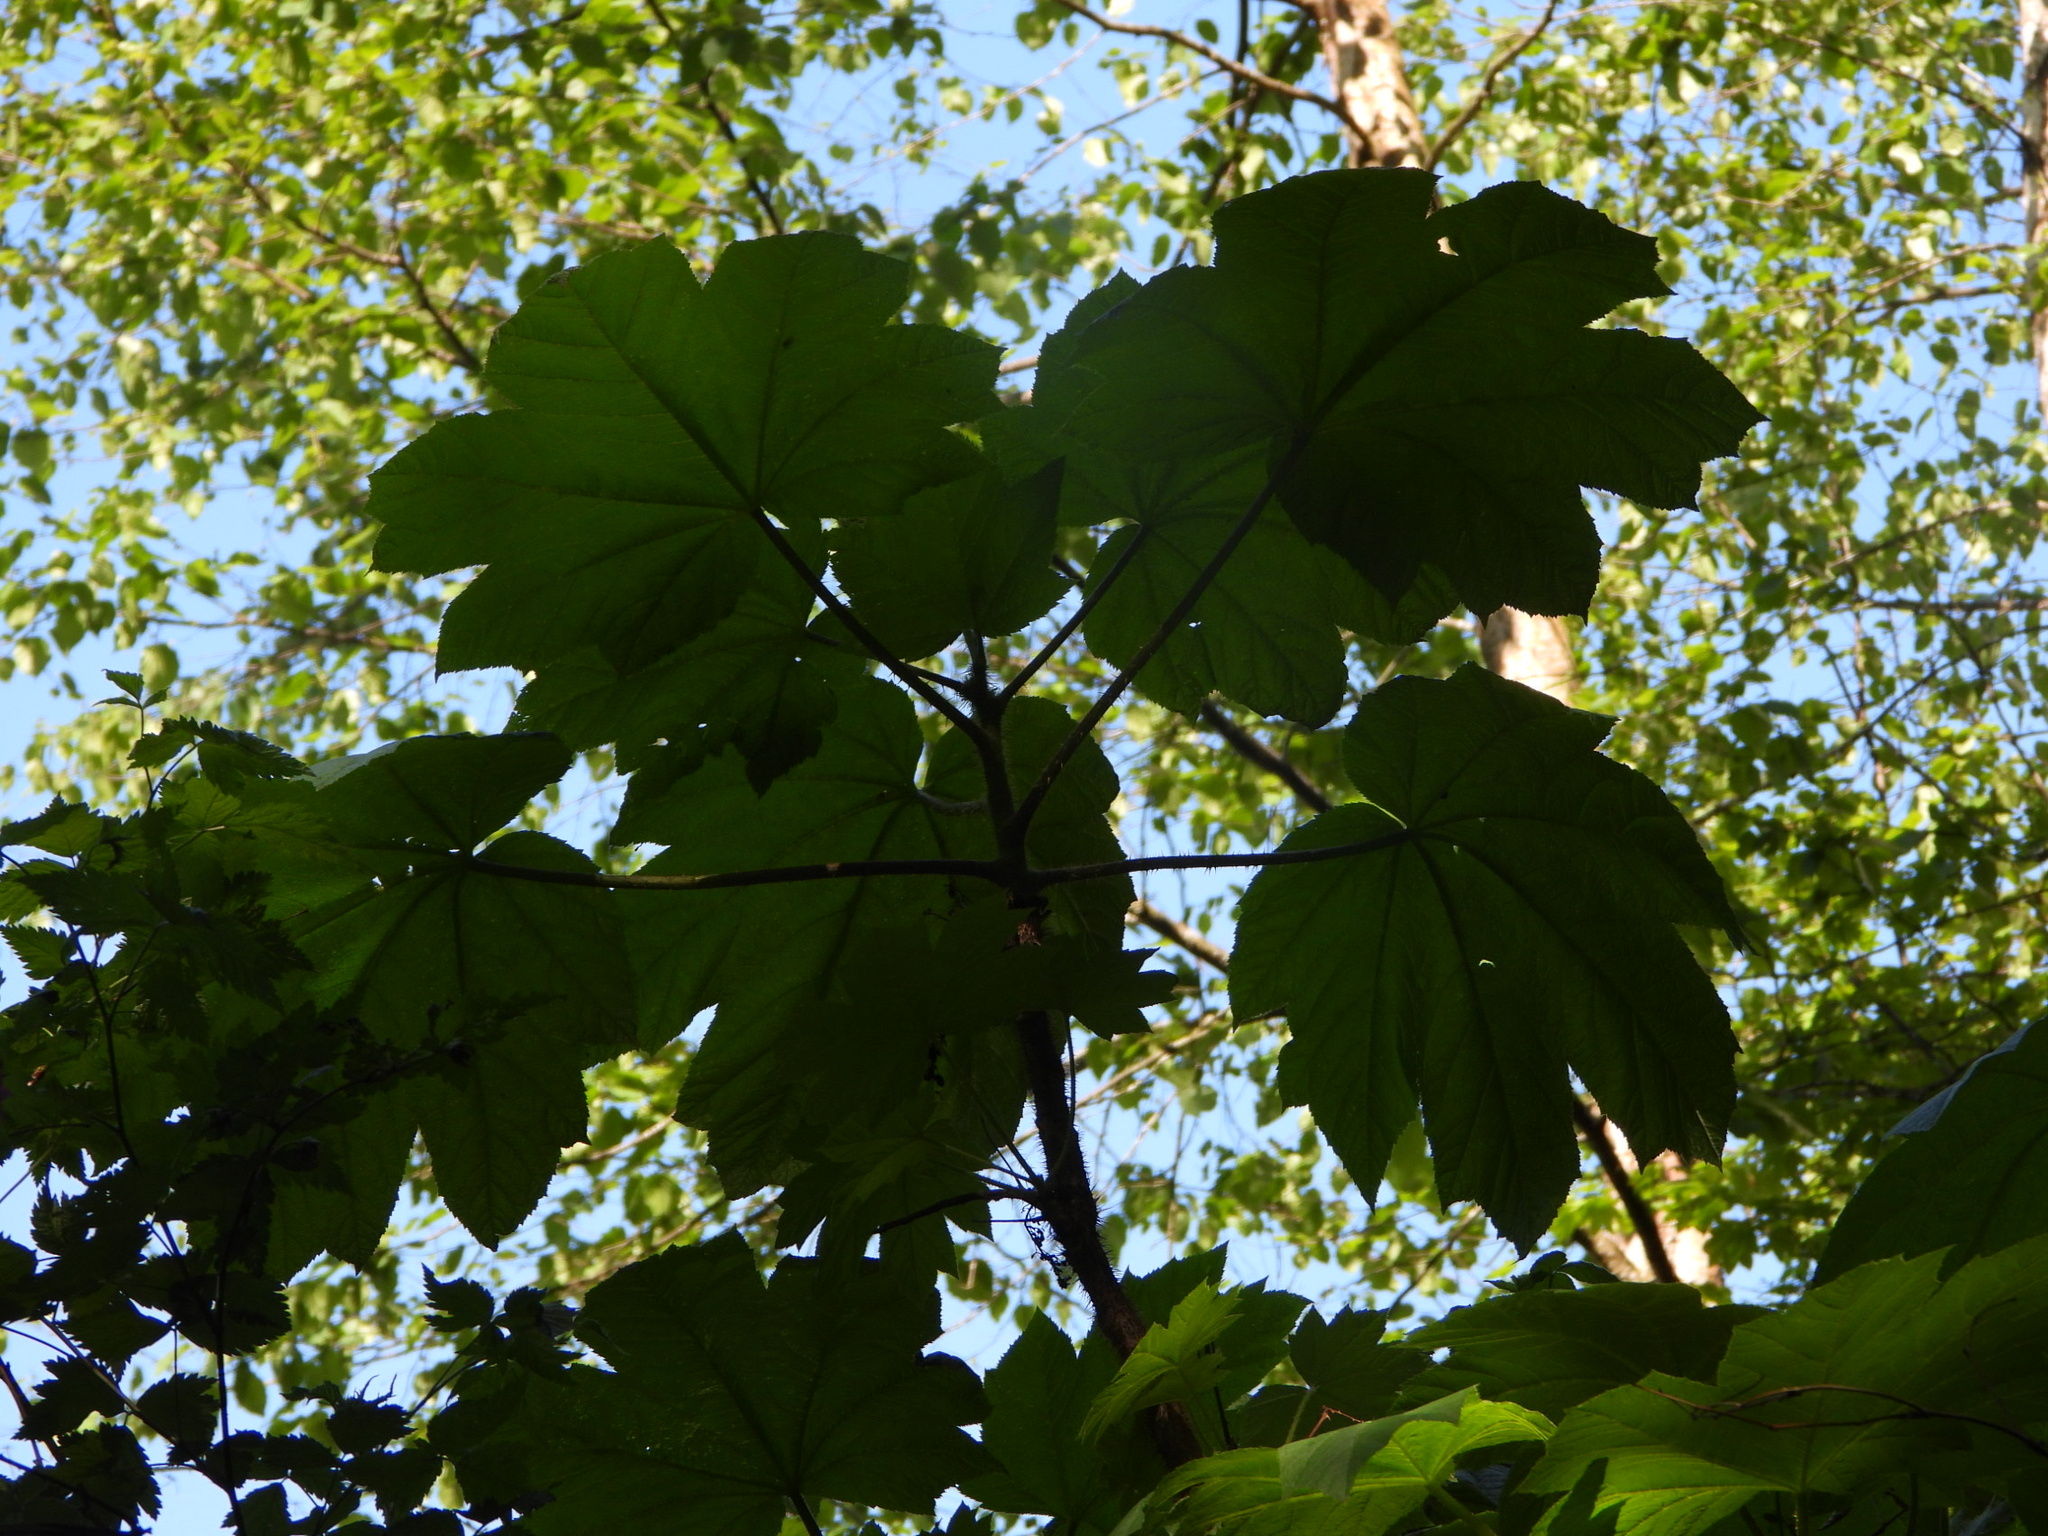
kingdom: Plantae
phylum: Tracheophyta
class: Magnoliopsida
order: Apiales
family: Araliaceae
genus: Oplopanax
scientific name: Oplopanax horridus
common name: Devil's walking-stick
